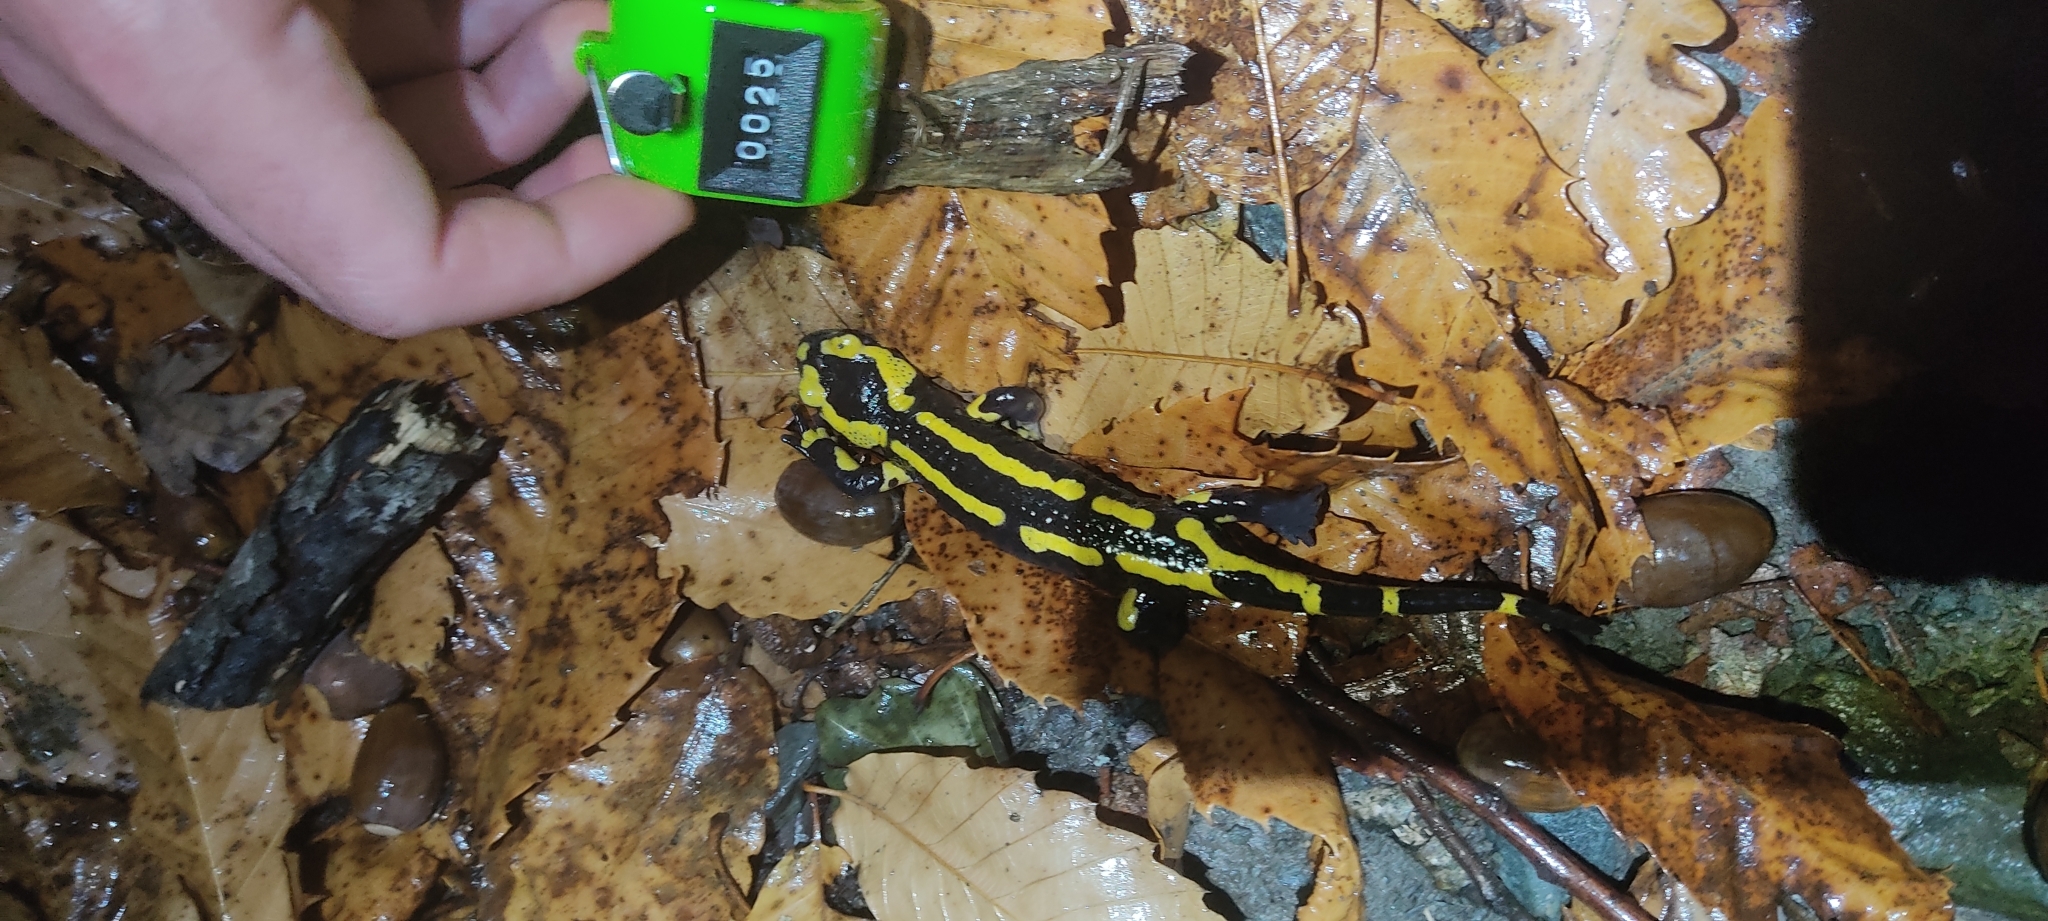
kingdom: Animalia
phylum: Chordata
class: Amphibia
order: Caudata
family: Salamandridae
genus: Salamandra
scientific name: Salamandra salamandra
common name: Fire salamander
